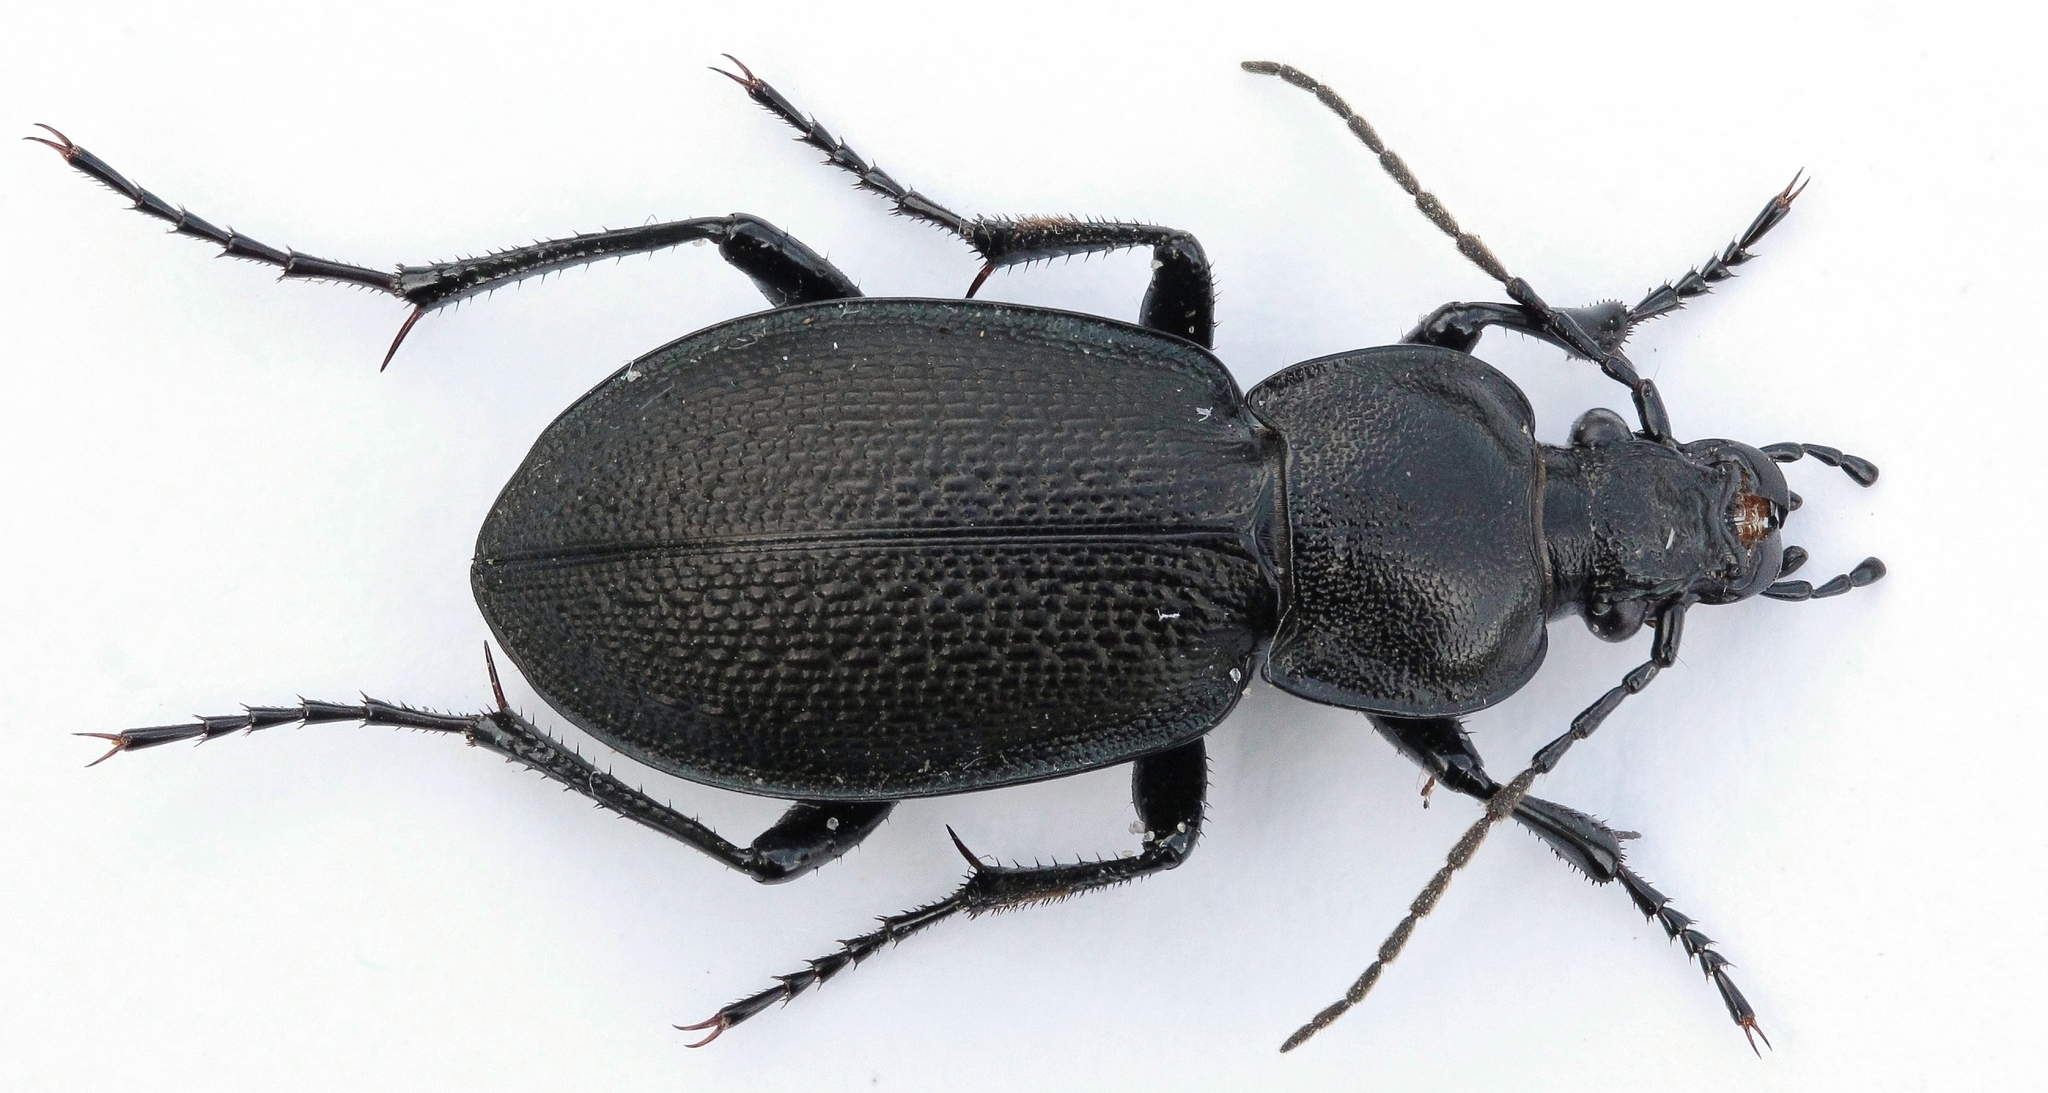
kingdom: Animalia
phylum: Arthropoda
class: Insecta
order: Coleoptera
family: Carabidae
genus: Carabus
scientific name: Carabus estreicheri
